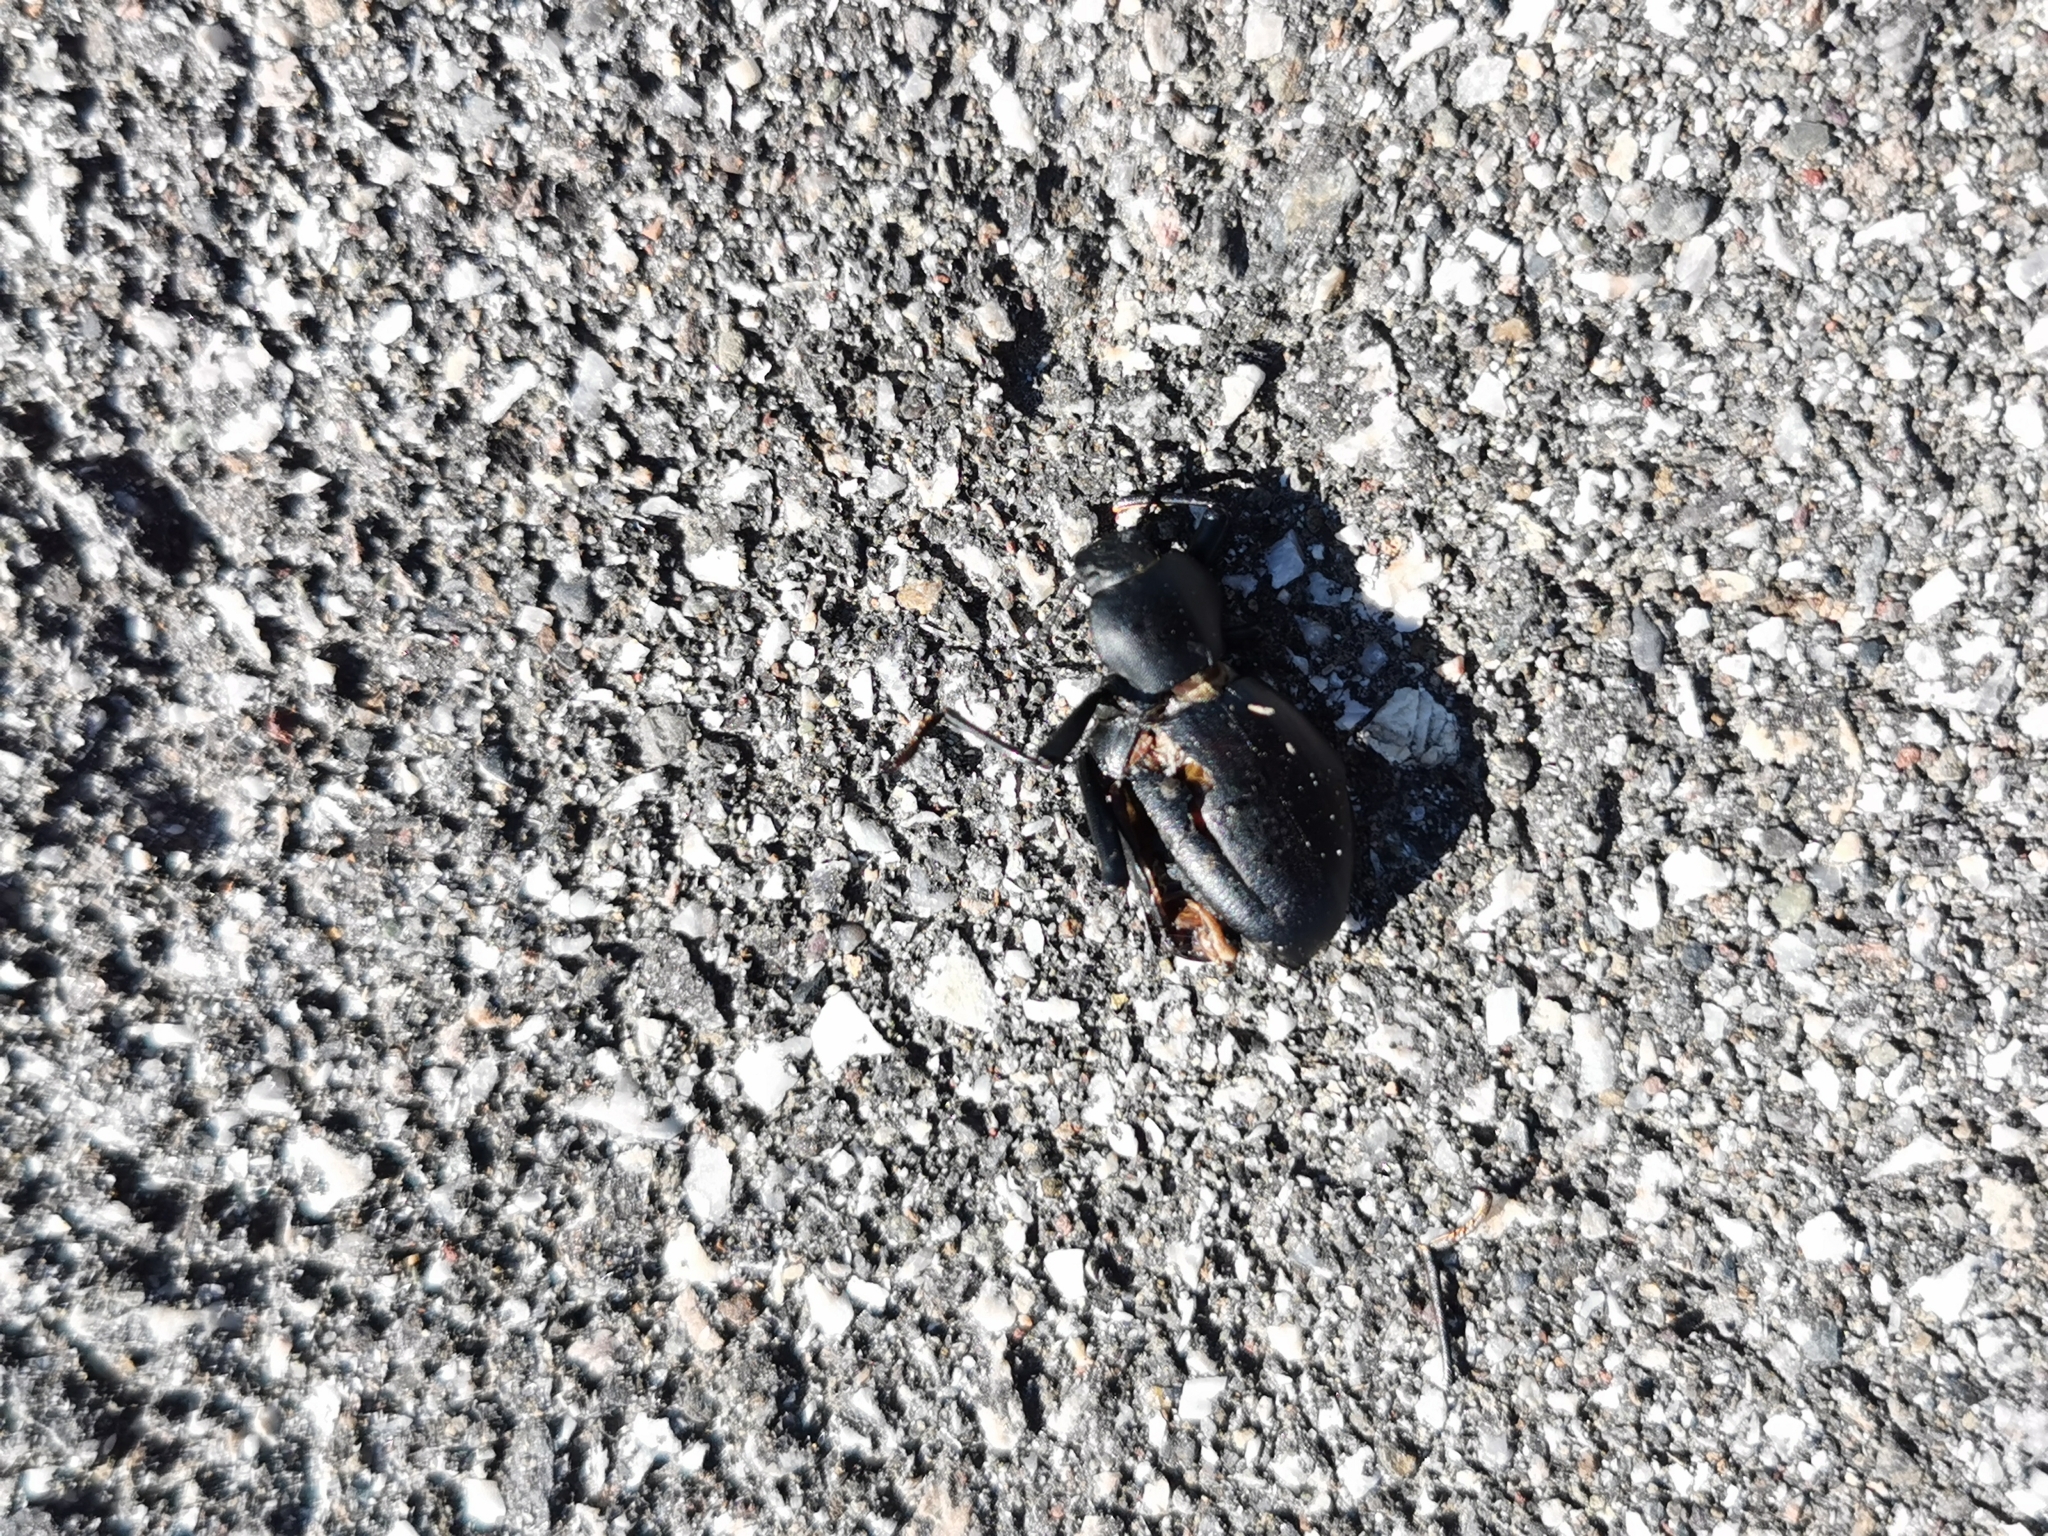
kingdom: Animalia
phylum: Arthropoda
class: Insecta
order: Coleoptera
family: Tenebrionidae
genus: Coelocnemis
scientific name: Coelocnemis dilaticollis
